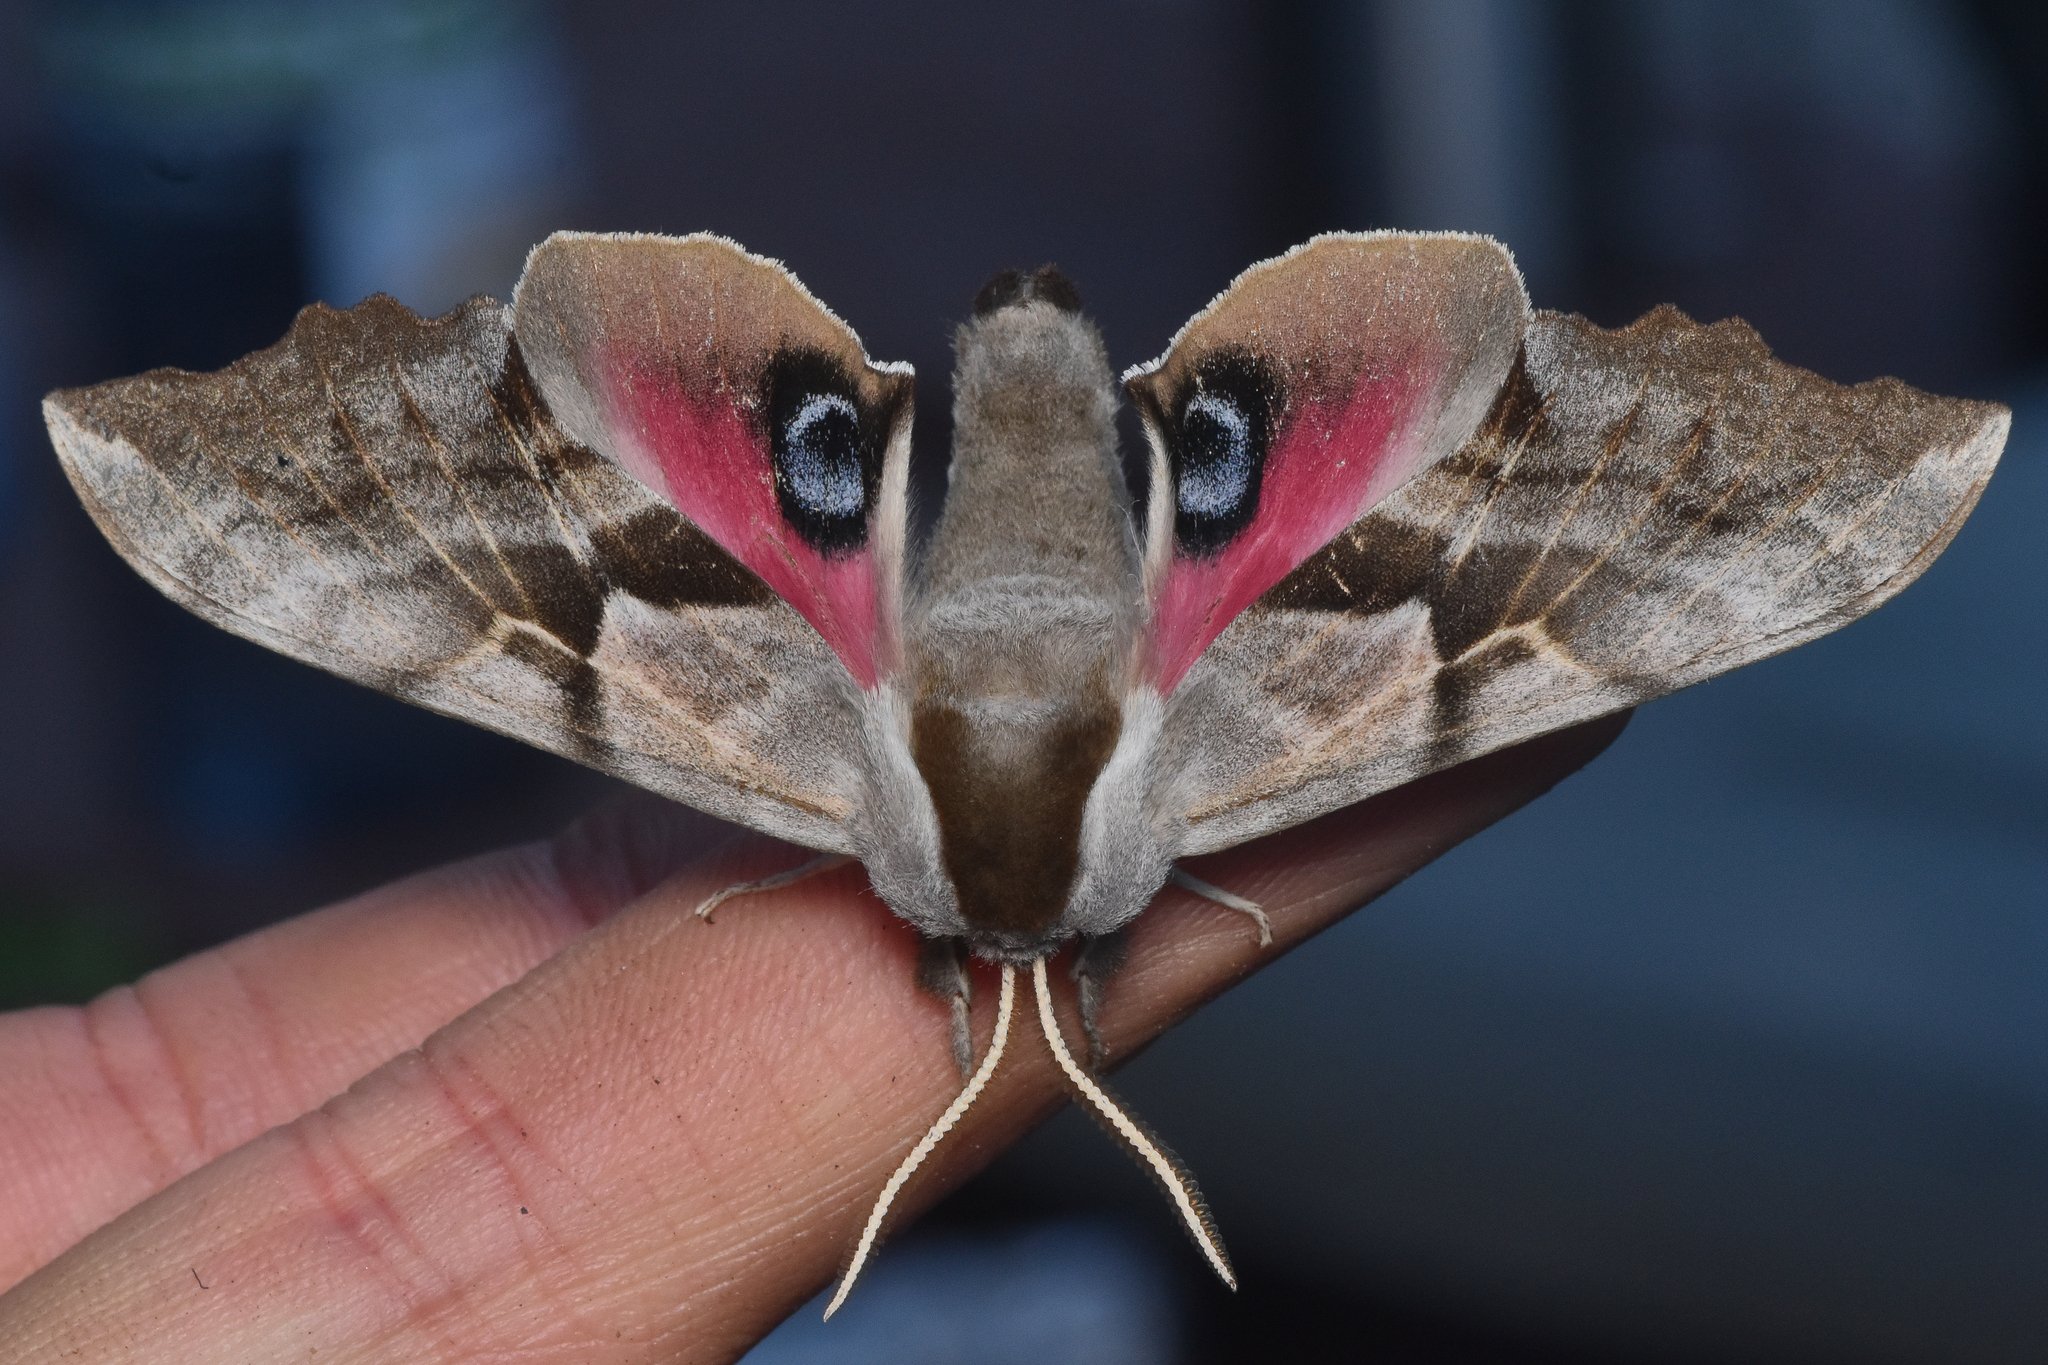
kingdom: Animalia
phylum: Arthropoda
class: Insecta
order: Lepidoptera
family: Sphingidae
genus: Smerinthus
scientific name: Smerinthus cerisyi
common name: Cerisy's sphinx moth
